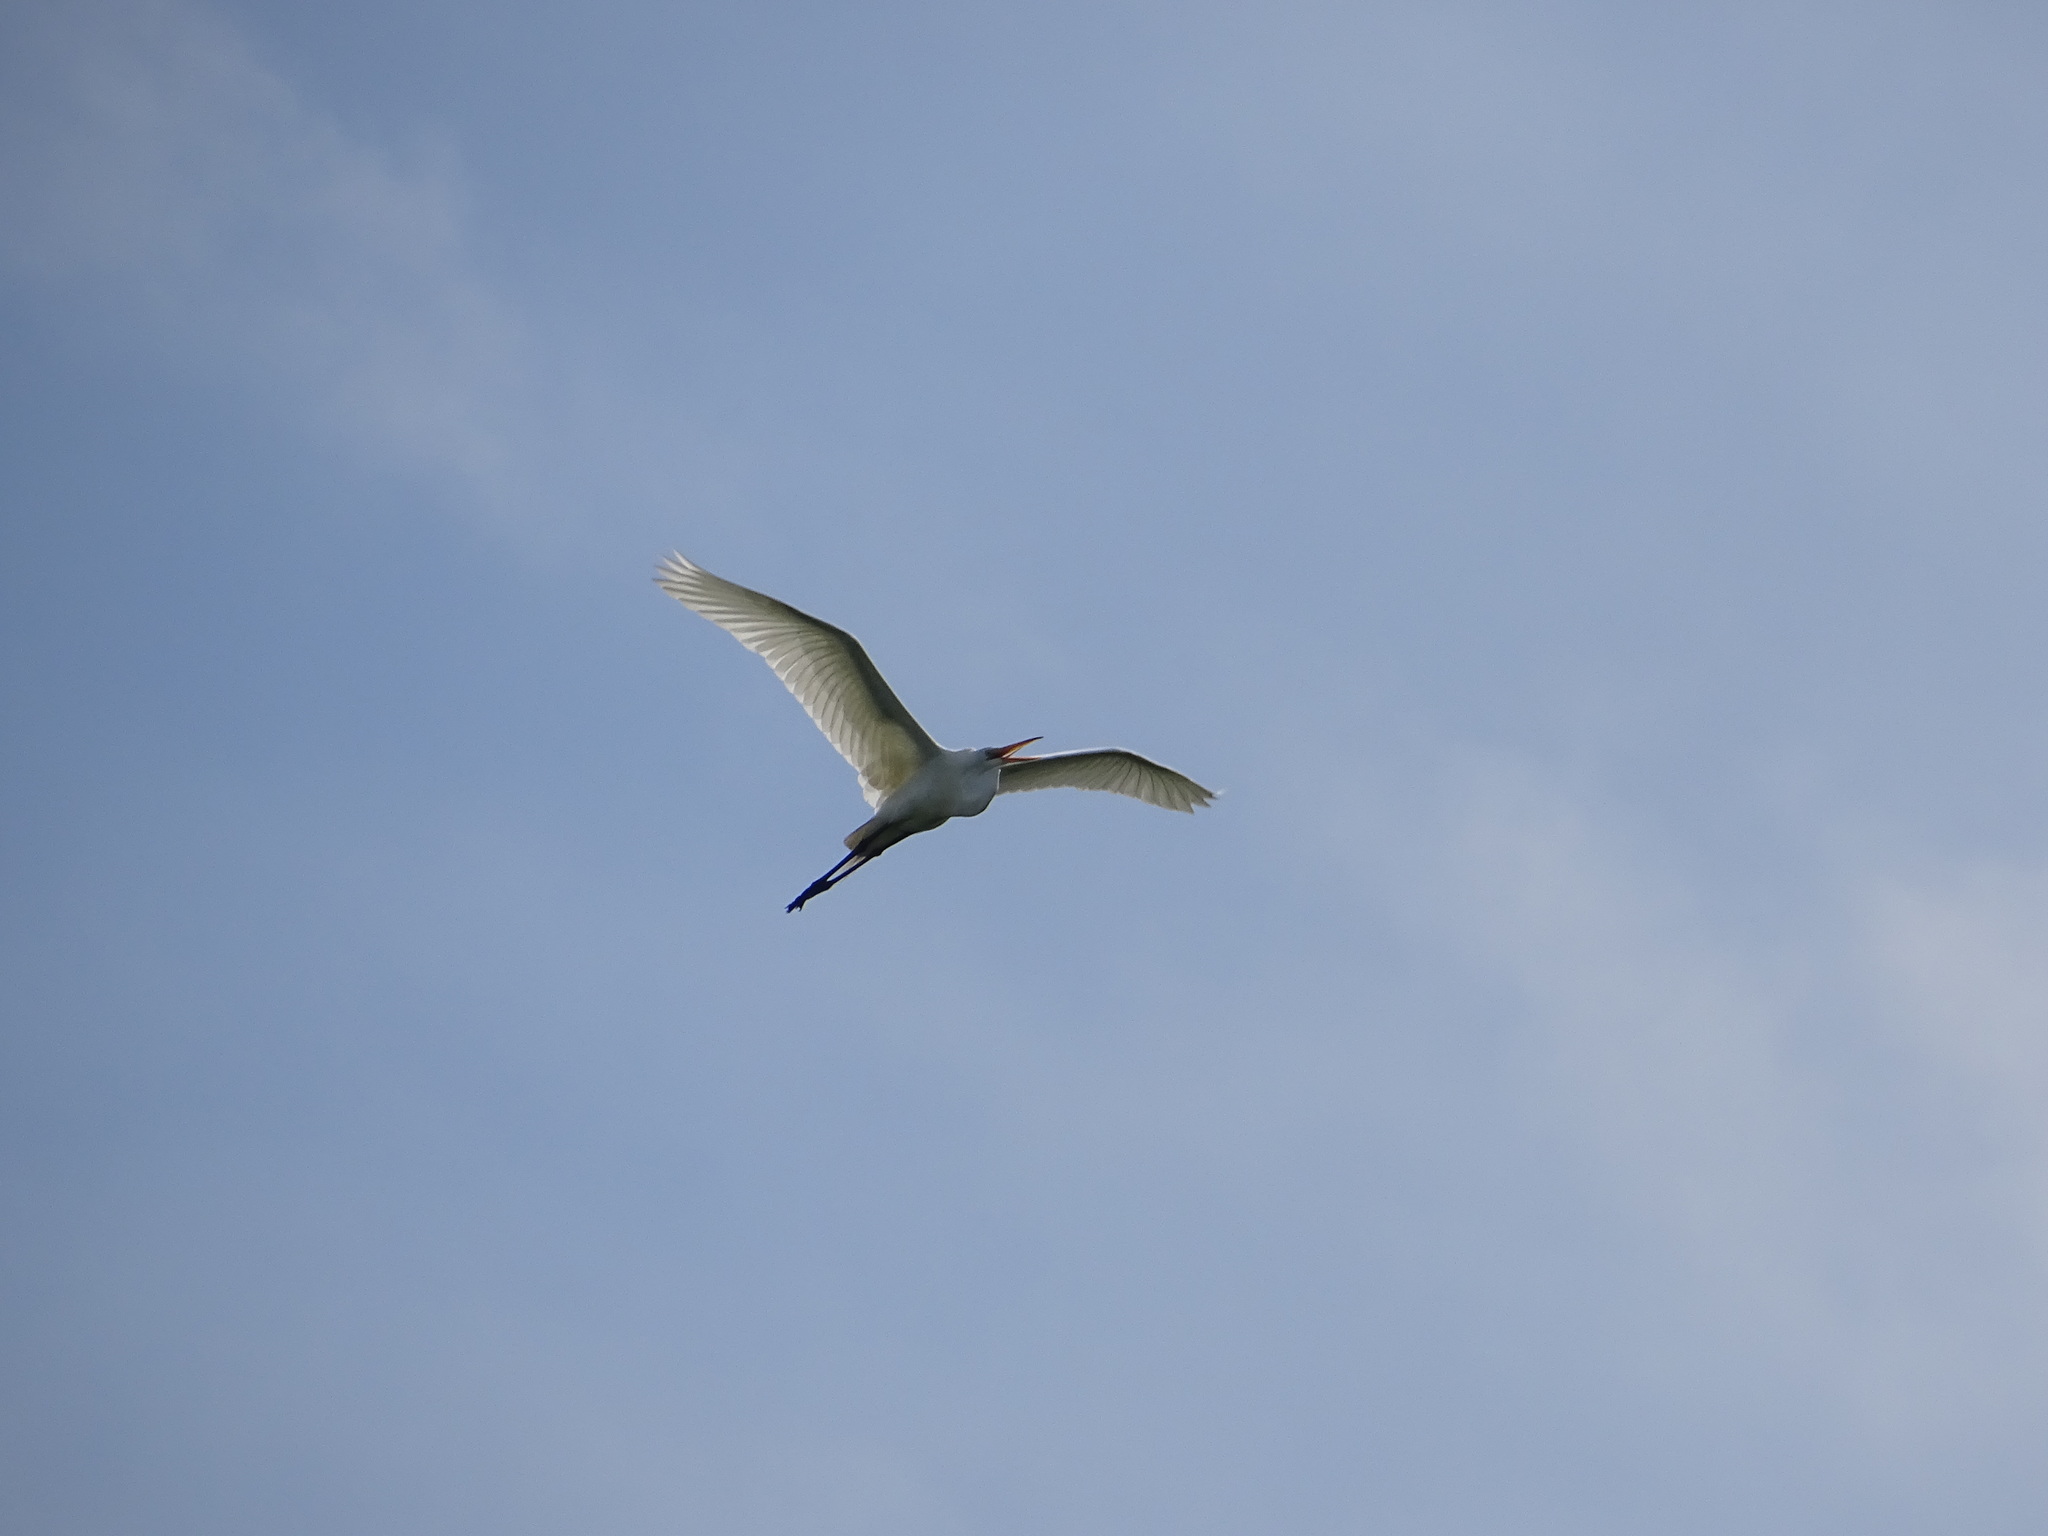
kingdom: Animalia
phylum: Chordata
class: Aves
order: Pelecaniformes
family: Ardeidae
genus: Ardea
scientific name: Ardea alba
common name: Great egret
